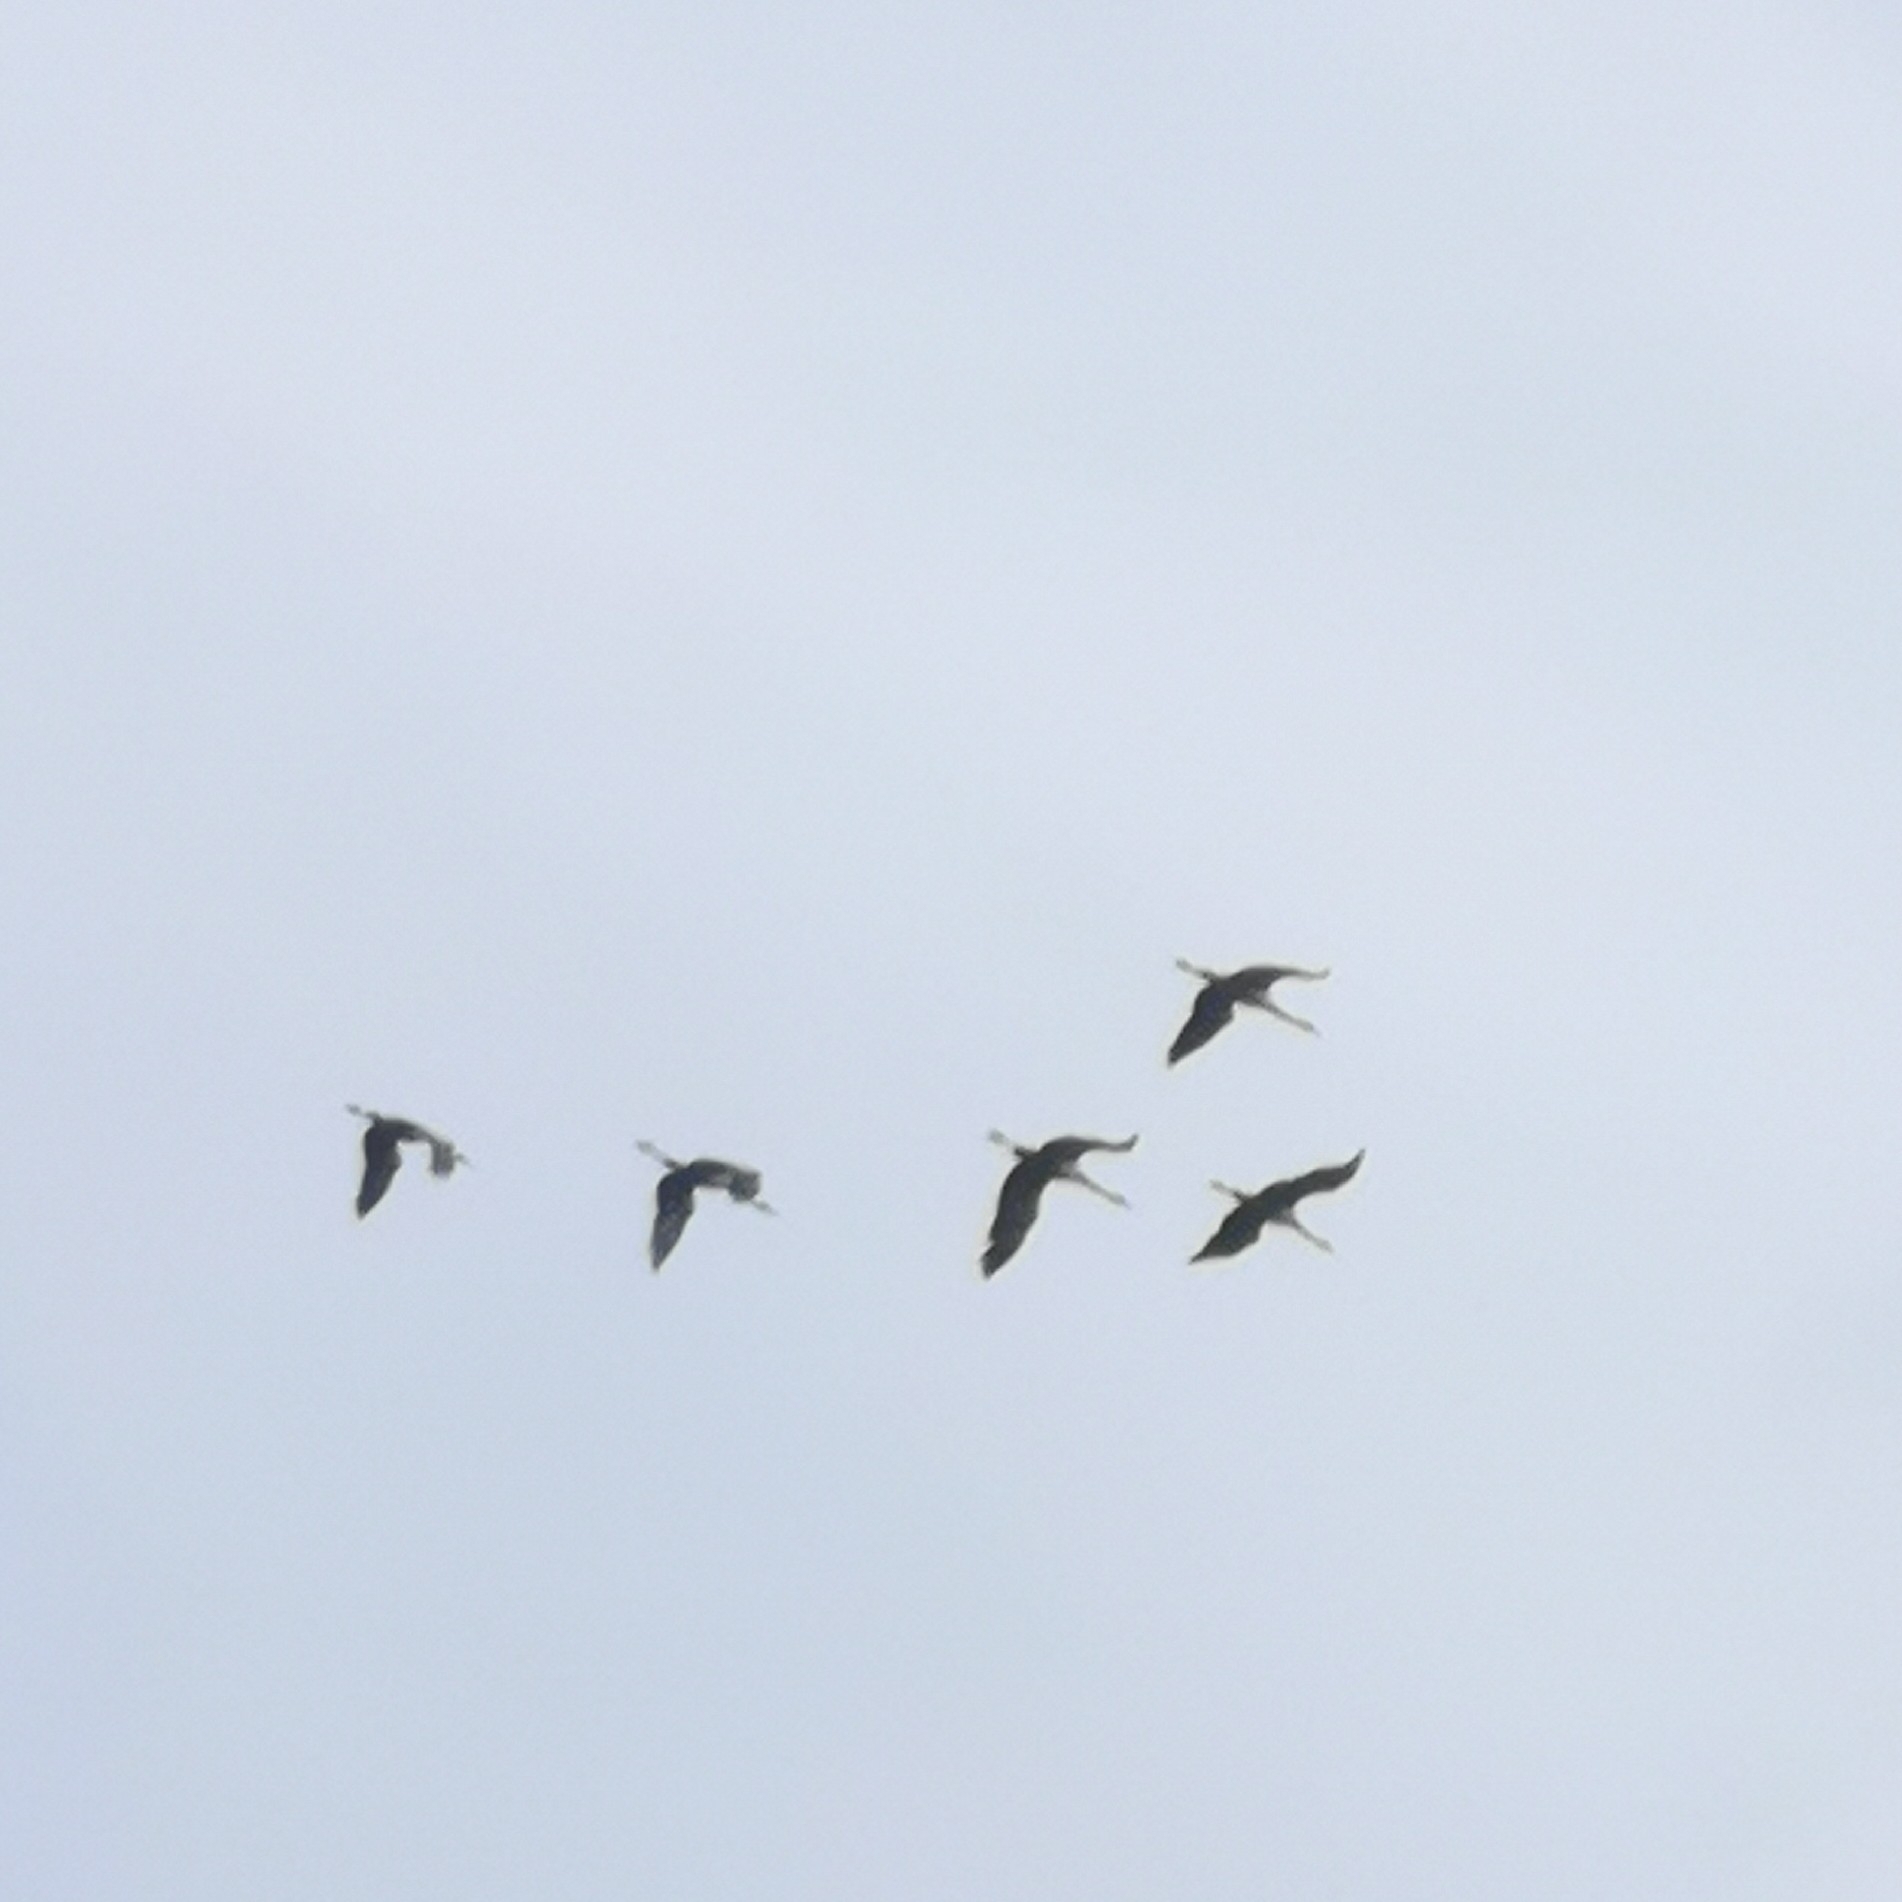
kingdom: Animalia
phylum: Chordata
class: Aves
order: Gruiformes
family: Gruidae
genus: Grus
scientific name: Grus grus
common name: Common crane
